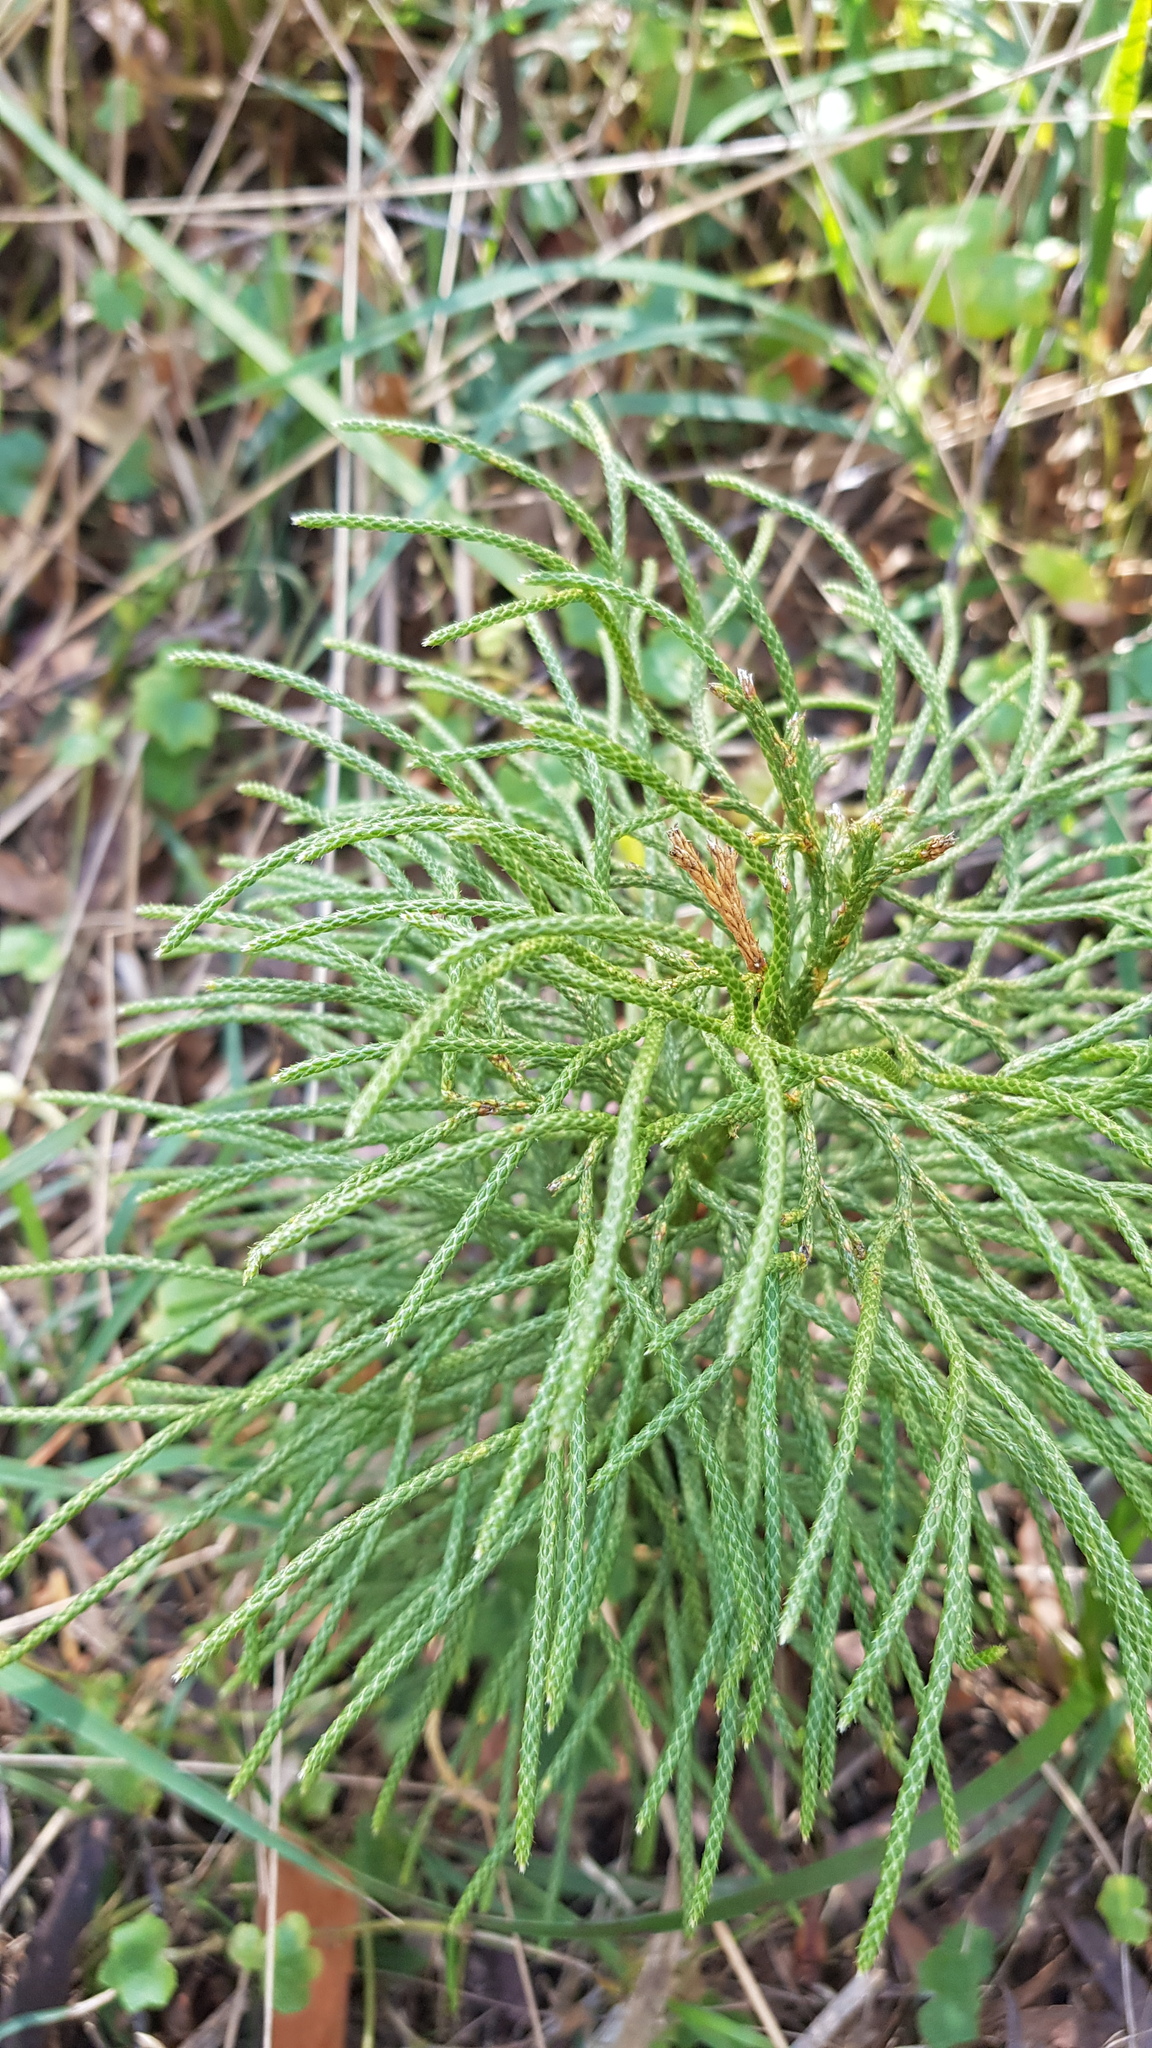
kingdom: Plantae
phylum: Tracheophyta
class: Lycopodiopsida
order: Lycopodiales
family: Lycopodiaceae
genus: Pseudolycopodium
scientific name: Pseudolycopodium densum
